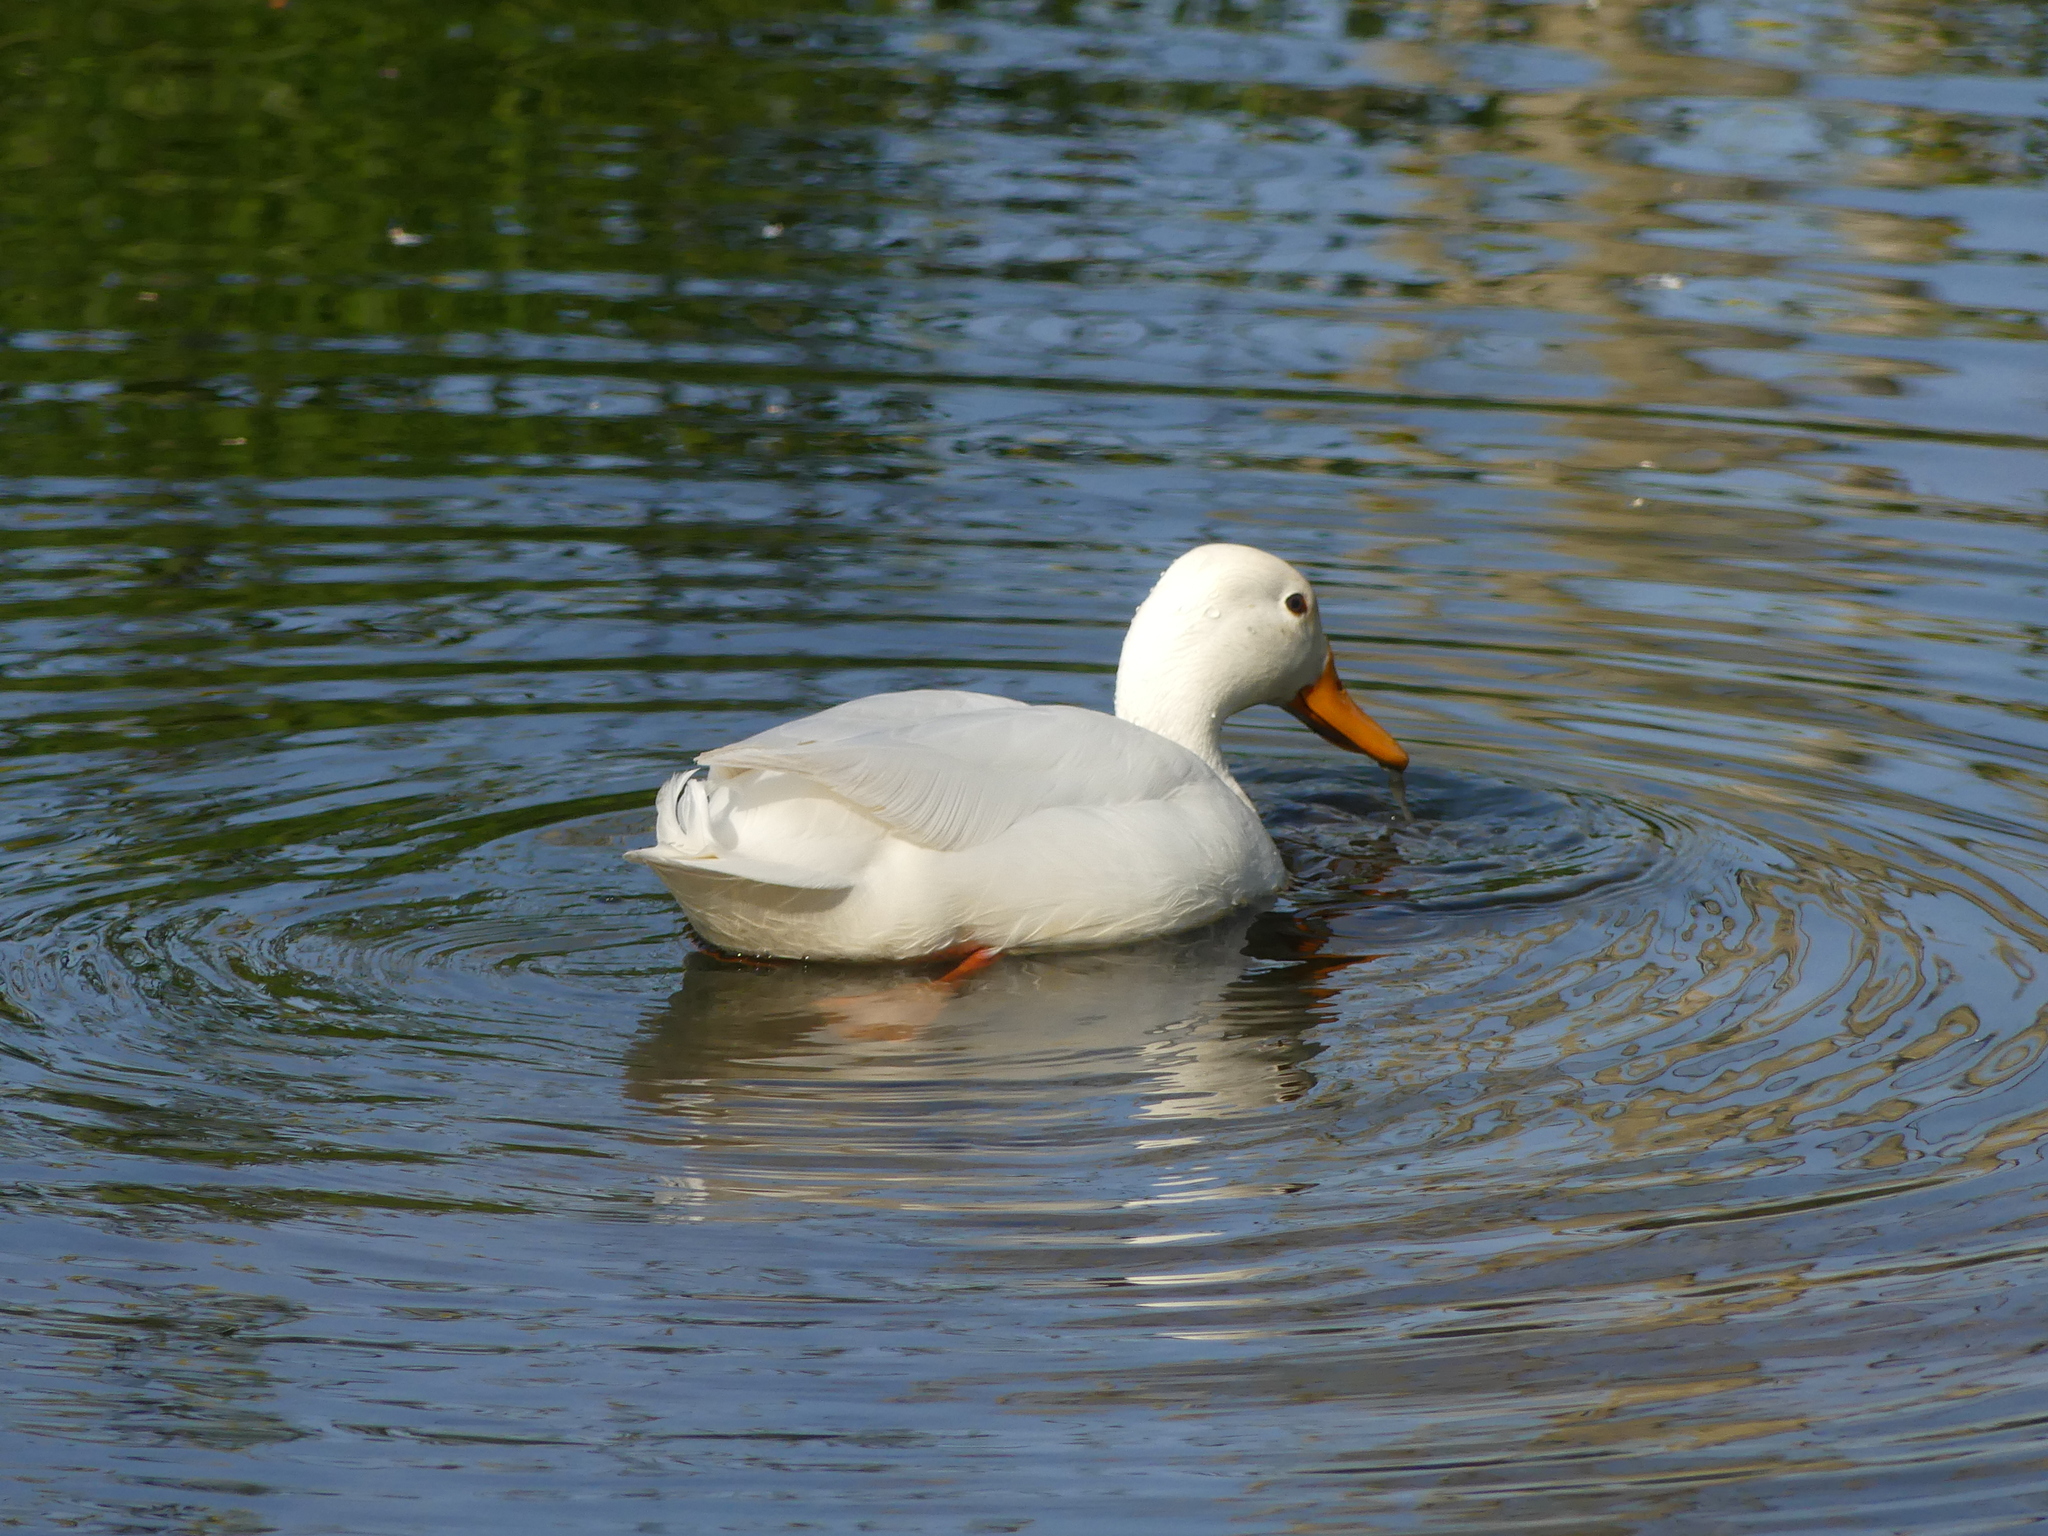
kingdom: Animalia
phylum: Chordata
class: Aves
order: Anseriformes
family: Anatidae
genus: Anas
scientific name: Anas platyrhynchos
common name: Mallard
